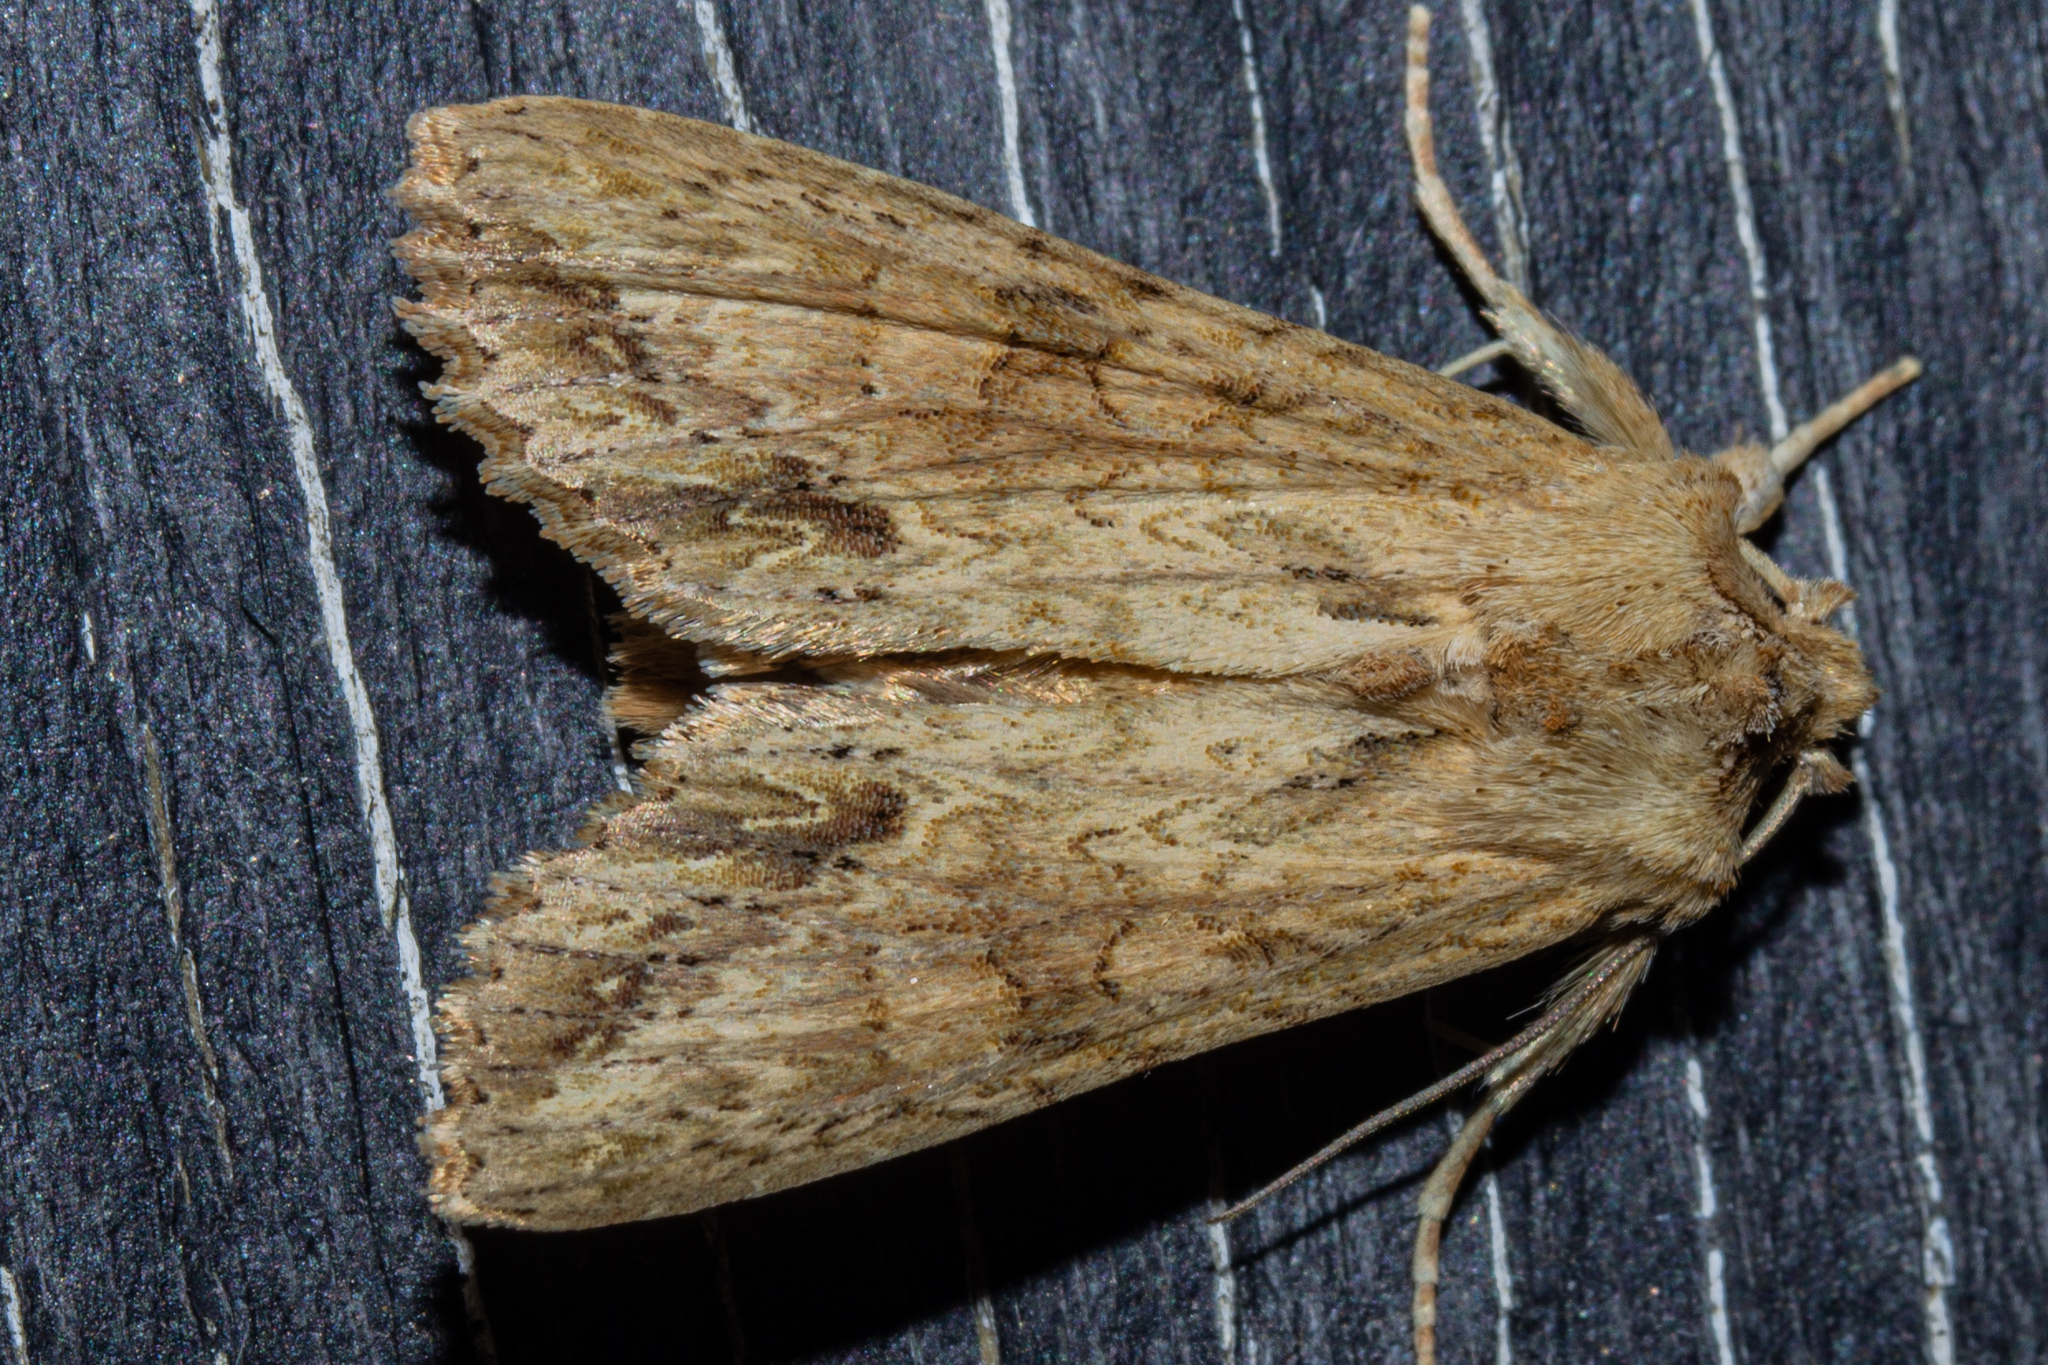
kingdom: Animalia
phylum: Arthropoda
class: Insecta
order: Lepidoptera
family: Noctuidae
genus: Ichneutica
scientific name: Ichneutica mollis
